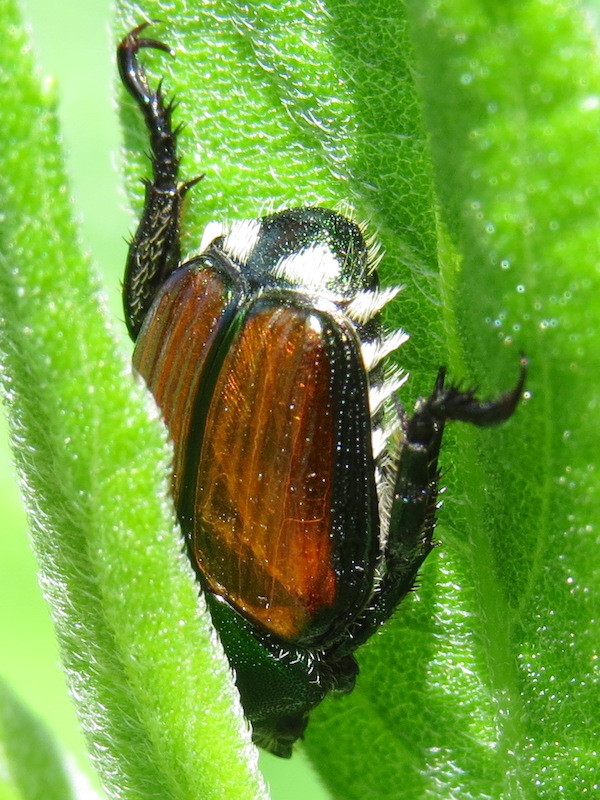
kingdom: Animalia
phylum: Arthropoda
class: Insecta
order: Coleoptera
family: Scarabaeidae
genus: Popillia
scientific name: Popillia japonica
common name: Japanese beetle
